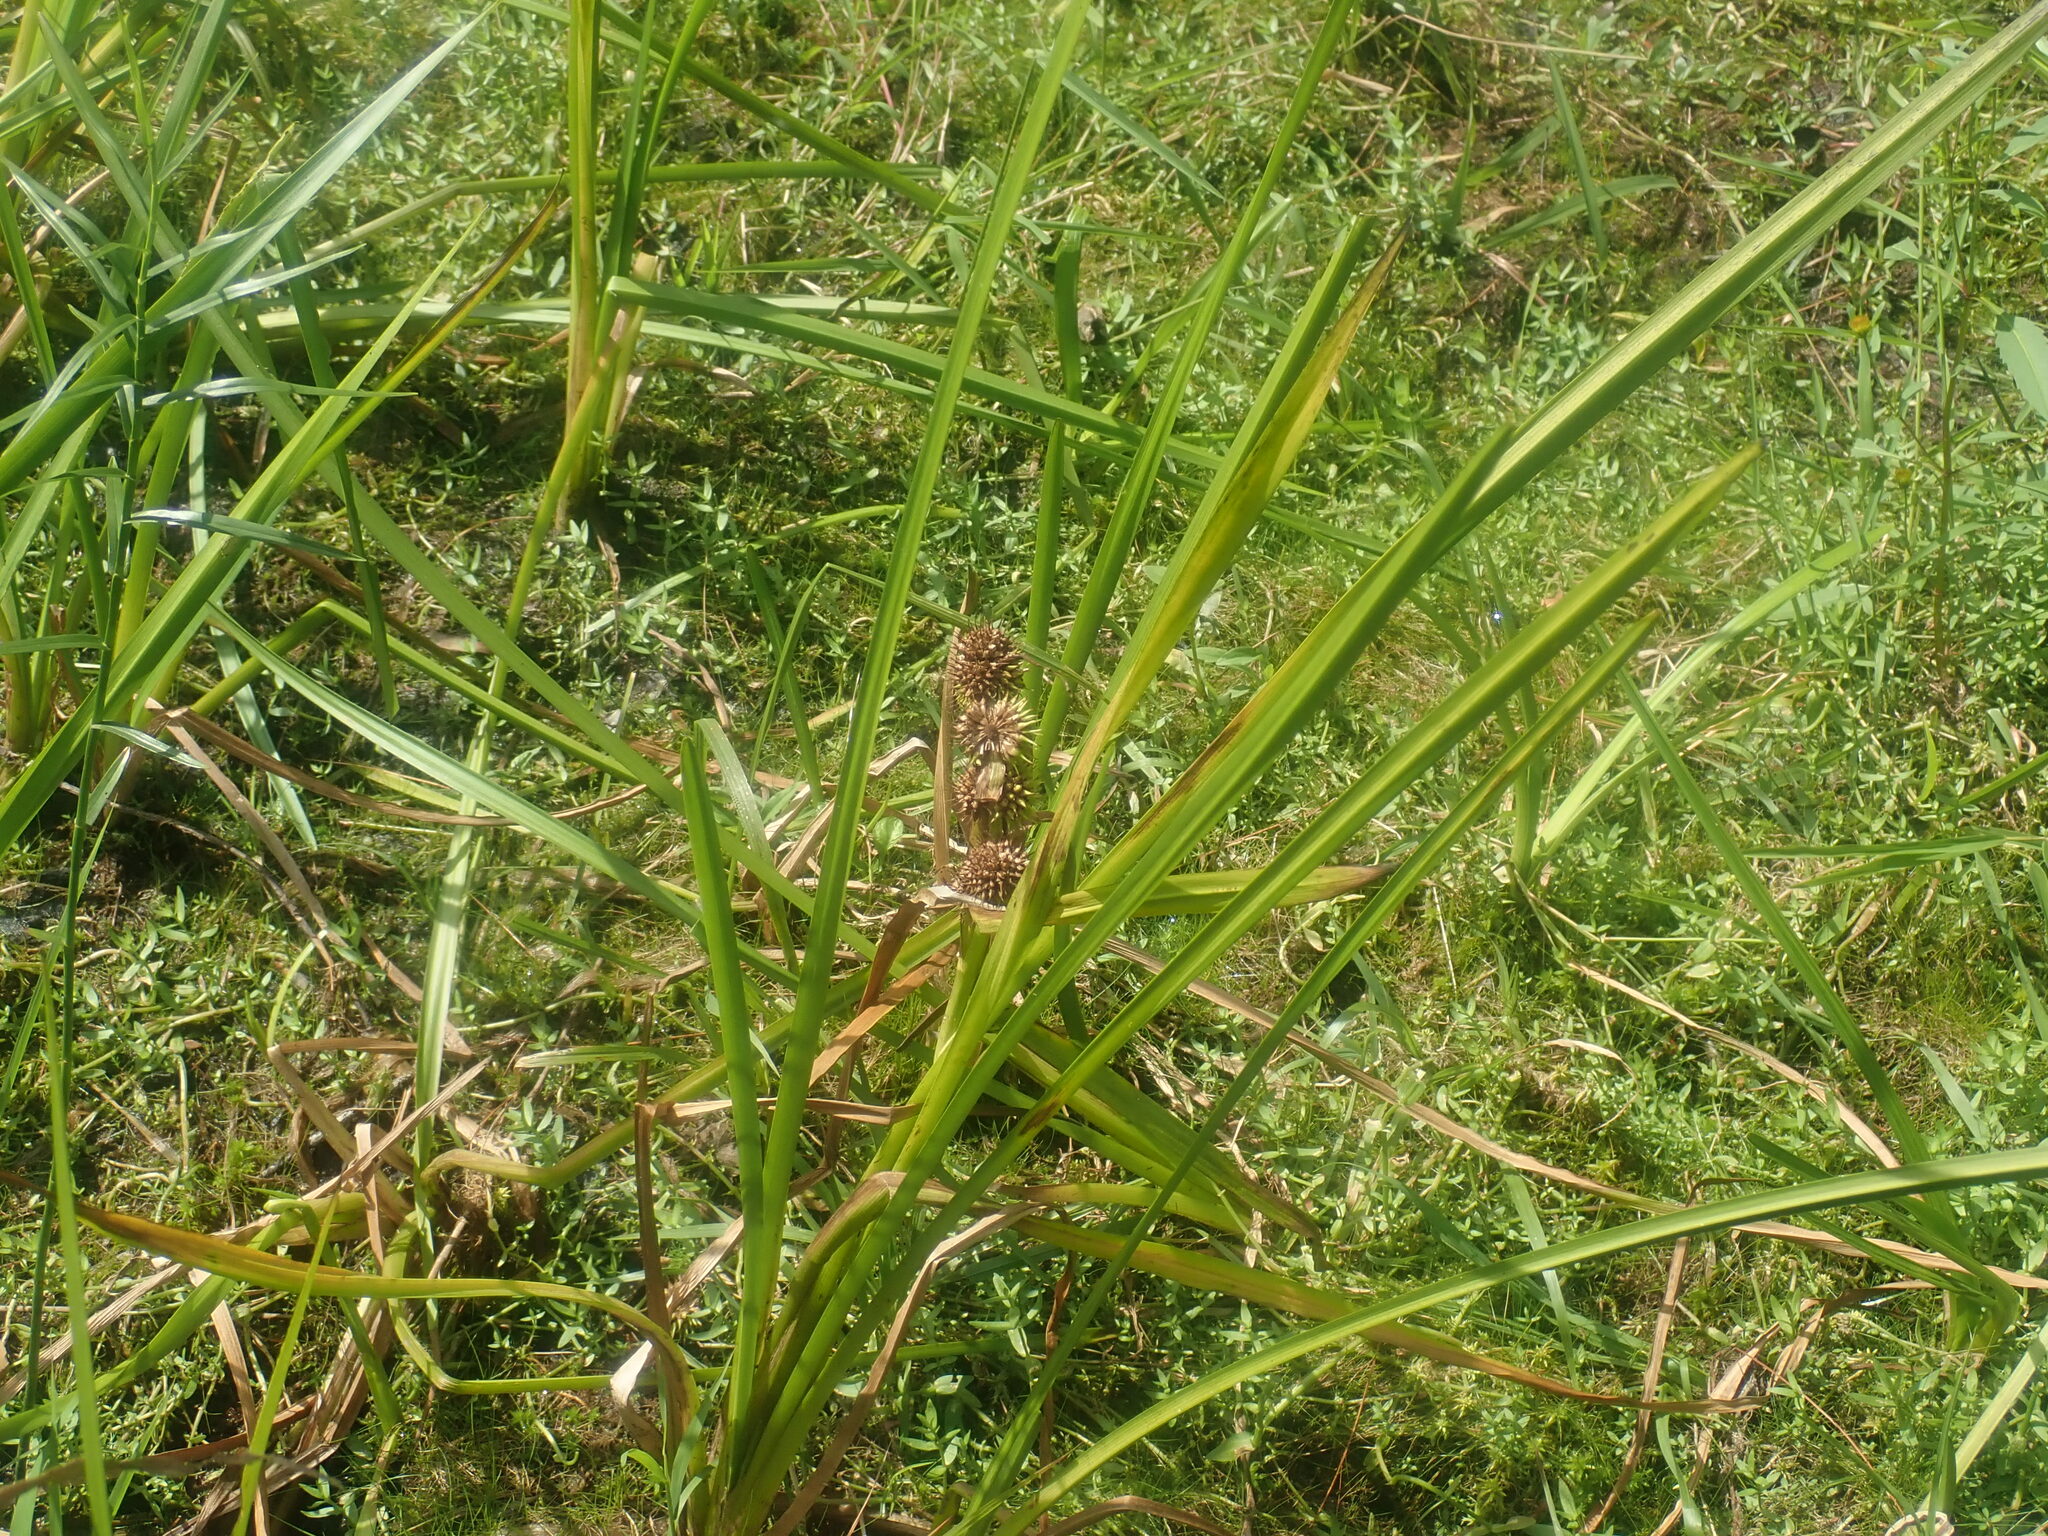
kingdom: Plantae
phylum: Tracheophyta
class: Liliopsida
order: Poales
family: Typhaceae
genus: Sparganium
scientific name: Sparganium
